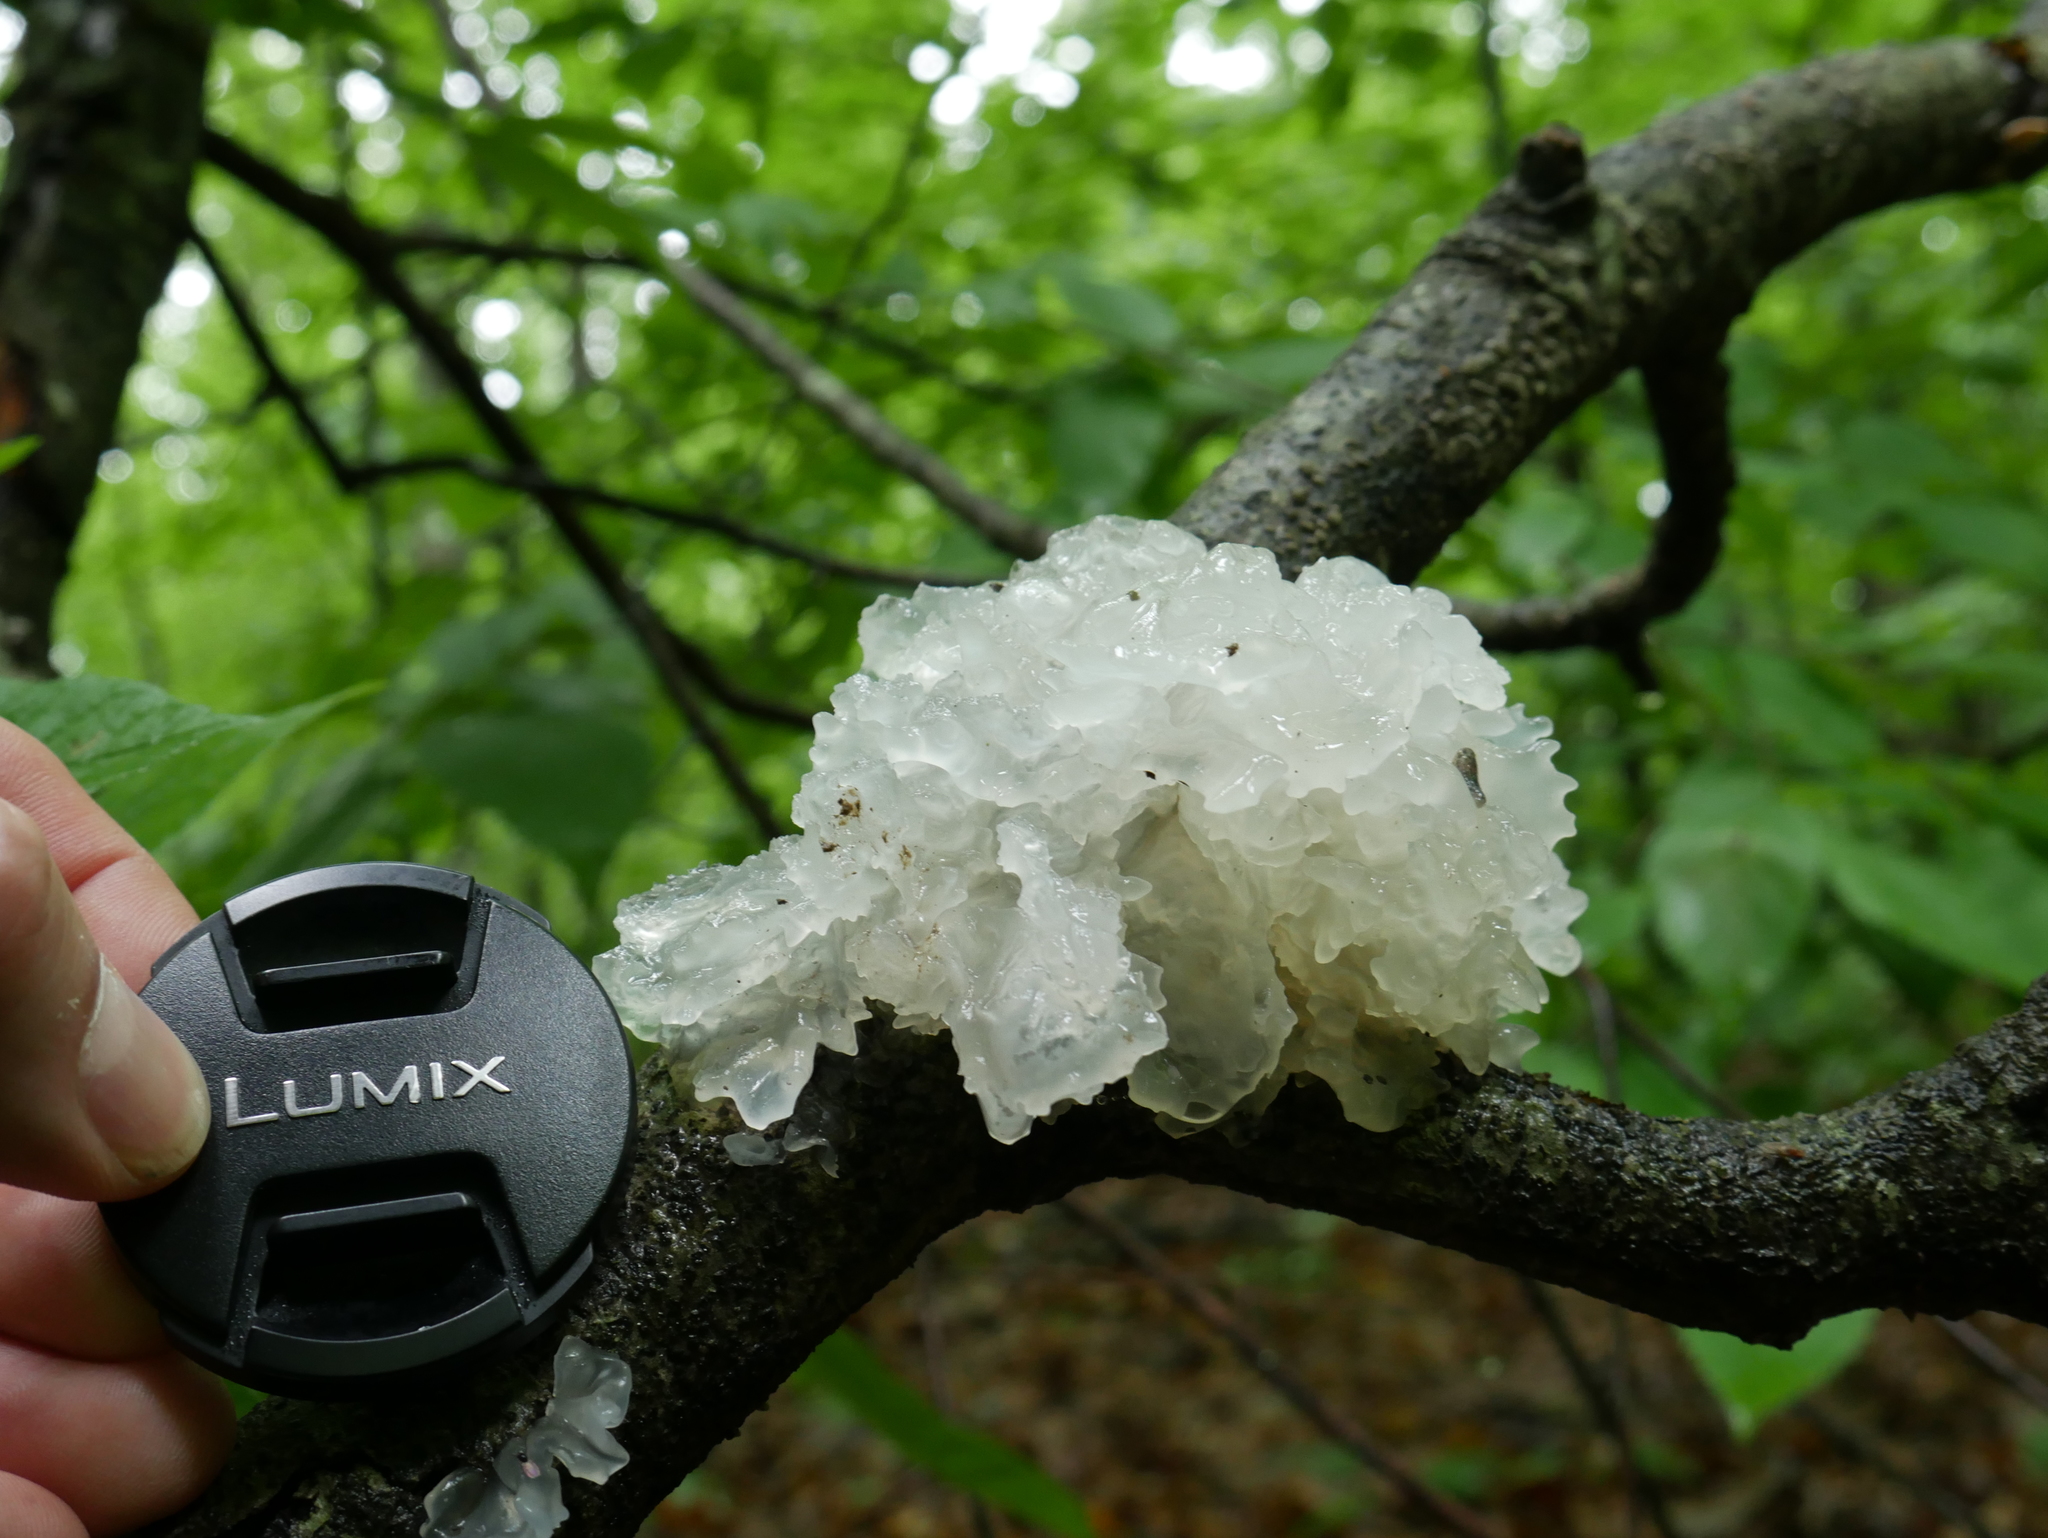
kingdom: Fungi
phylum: Basidiomycota
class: Tremellomycetes
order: Tremellales
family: Tremellaceae
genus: Tremella
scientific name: Tremella fuciformis
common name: Snow fungus
